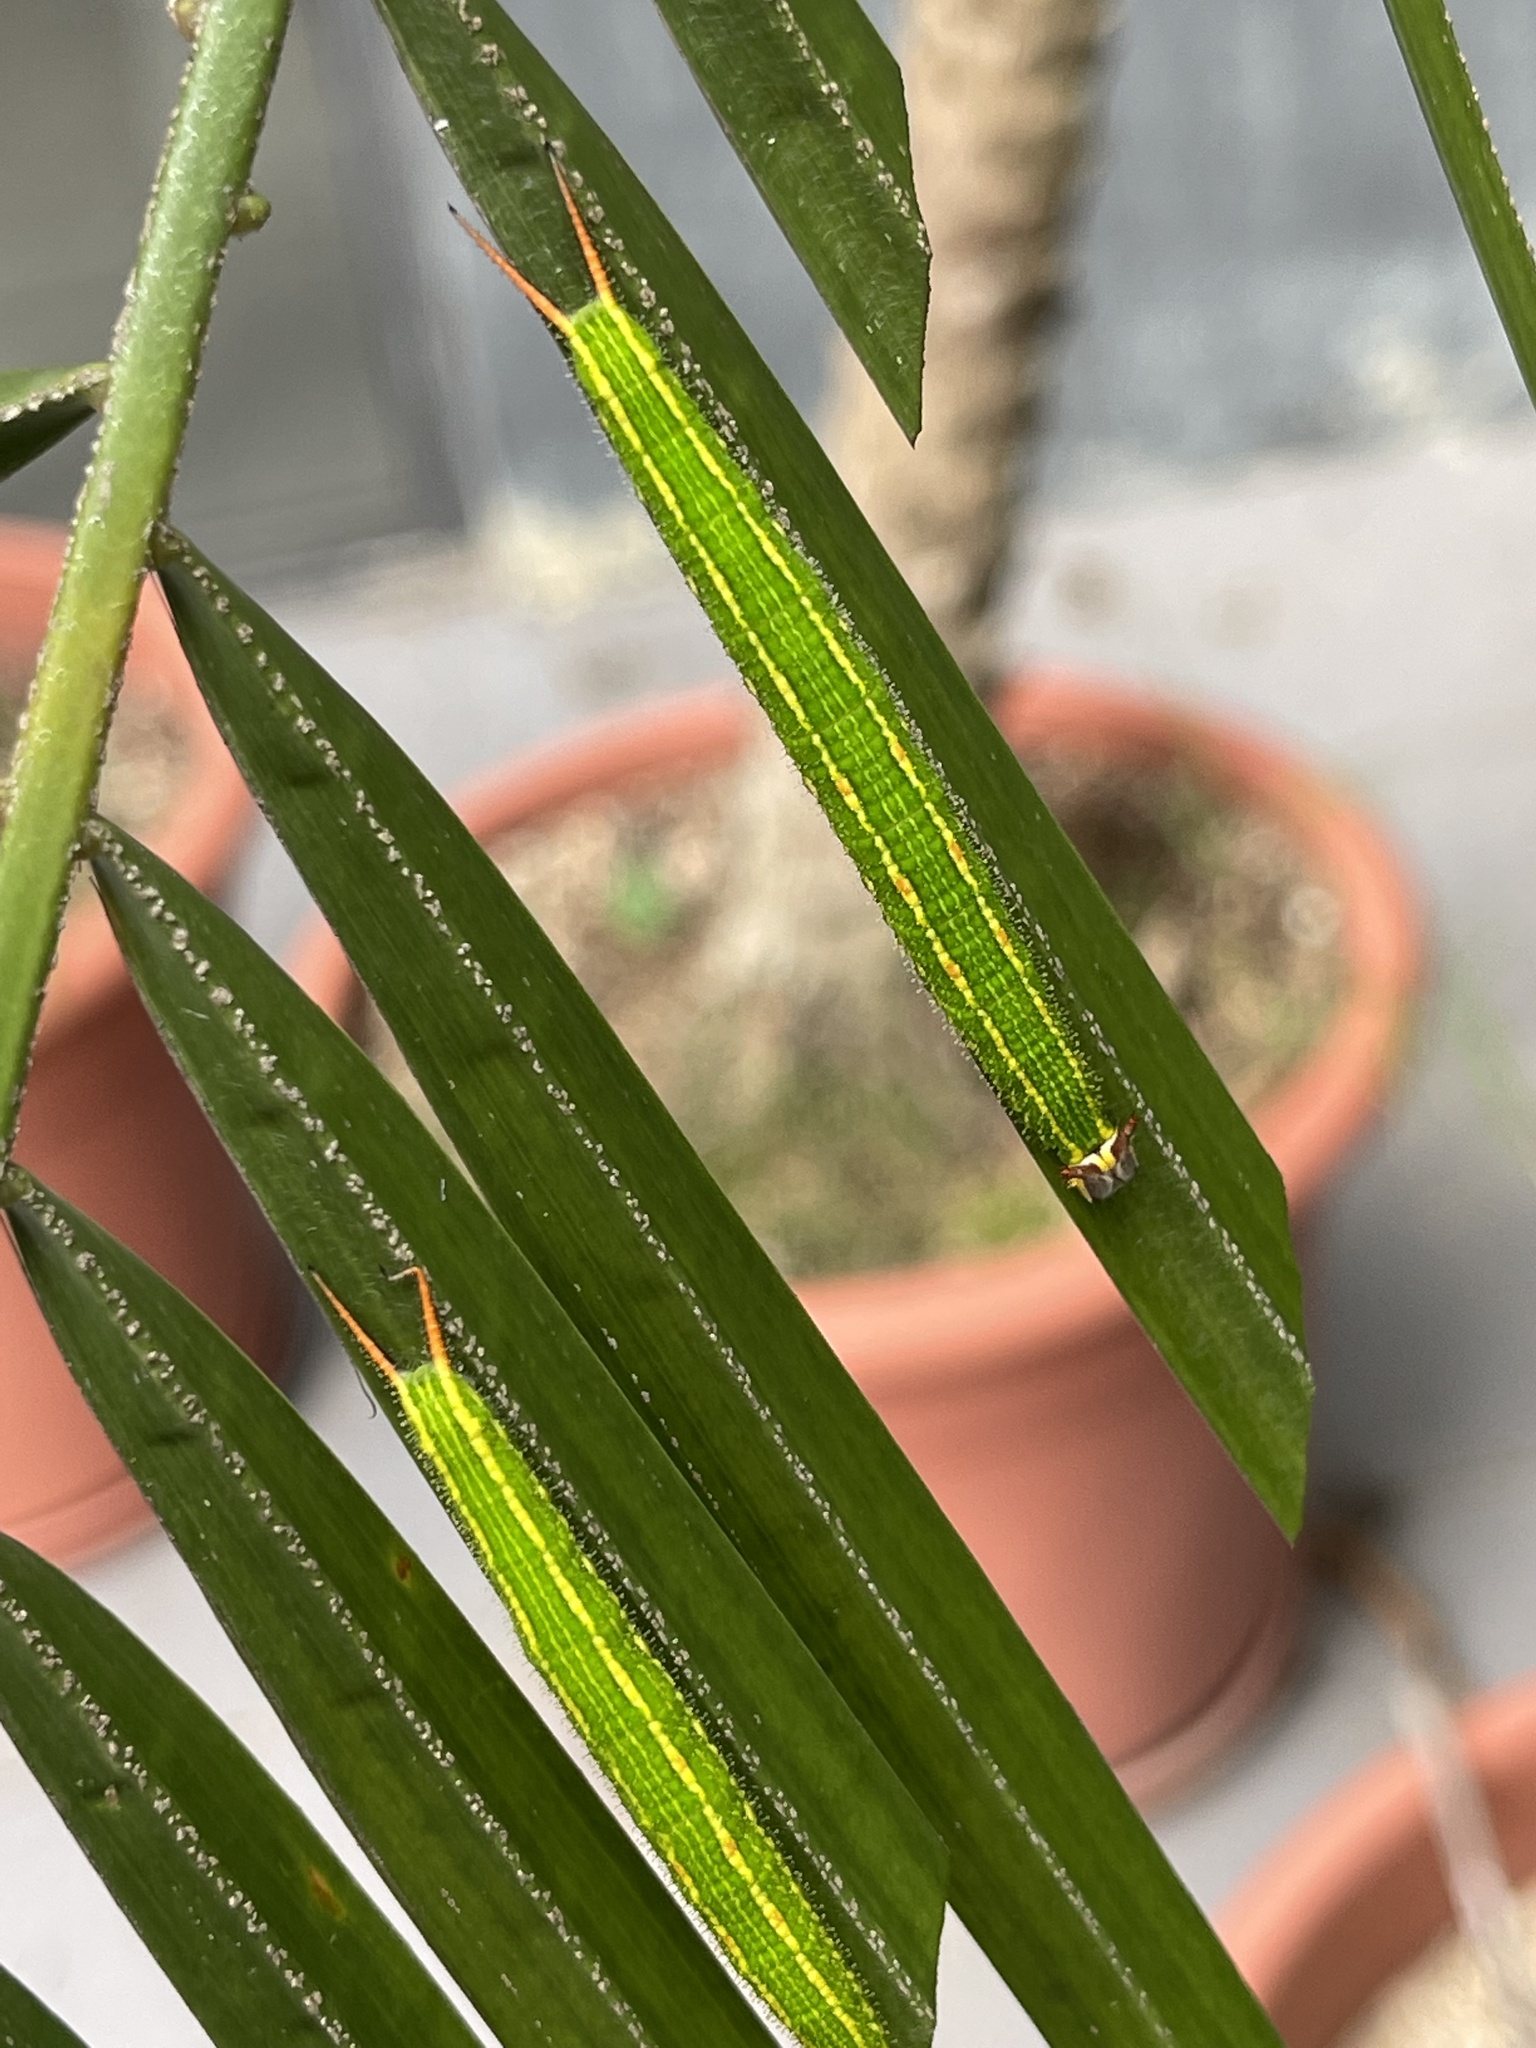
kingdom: Animalia
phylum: Arthropoda
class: Insecta
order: Lepidoptera
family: Nymphalidae
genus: Elymnias
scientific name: Elymnias hypermnestra
